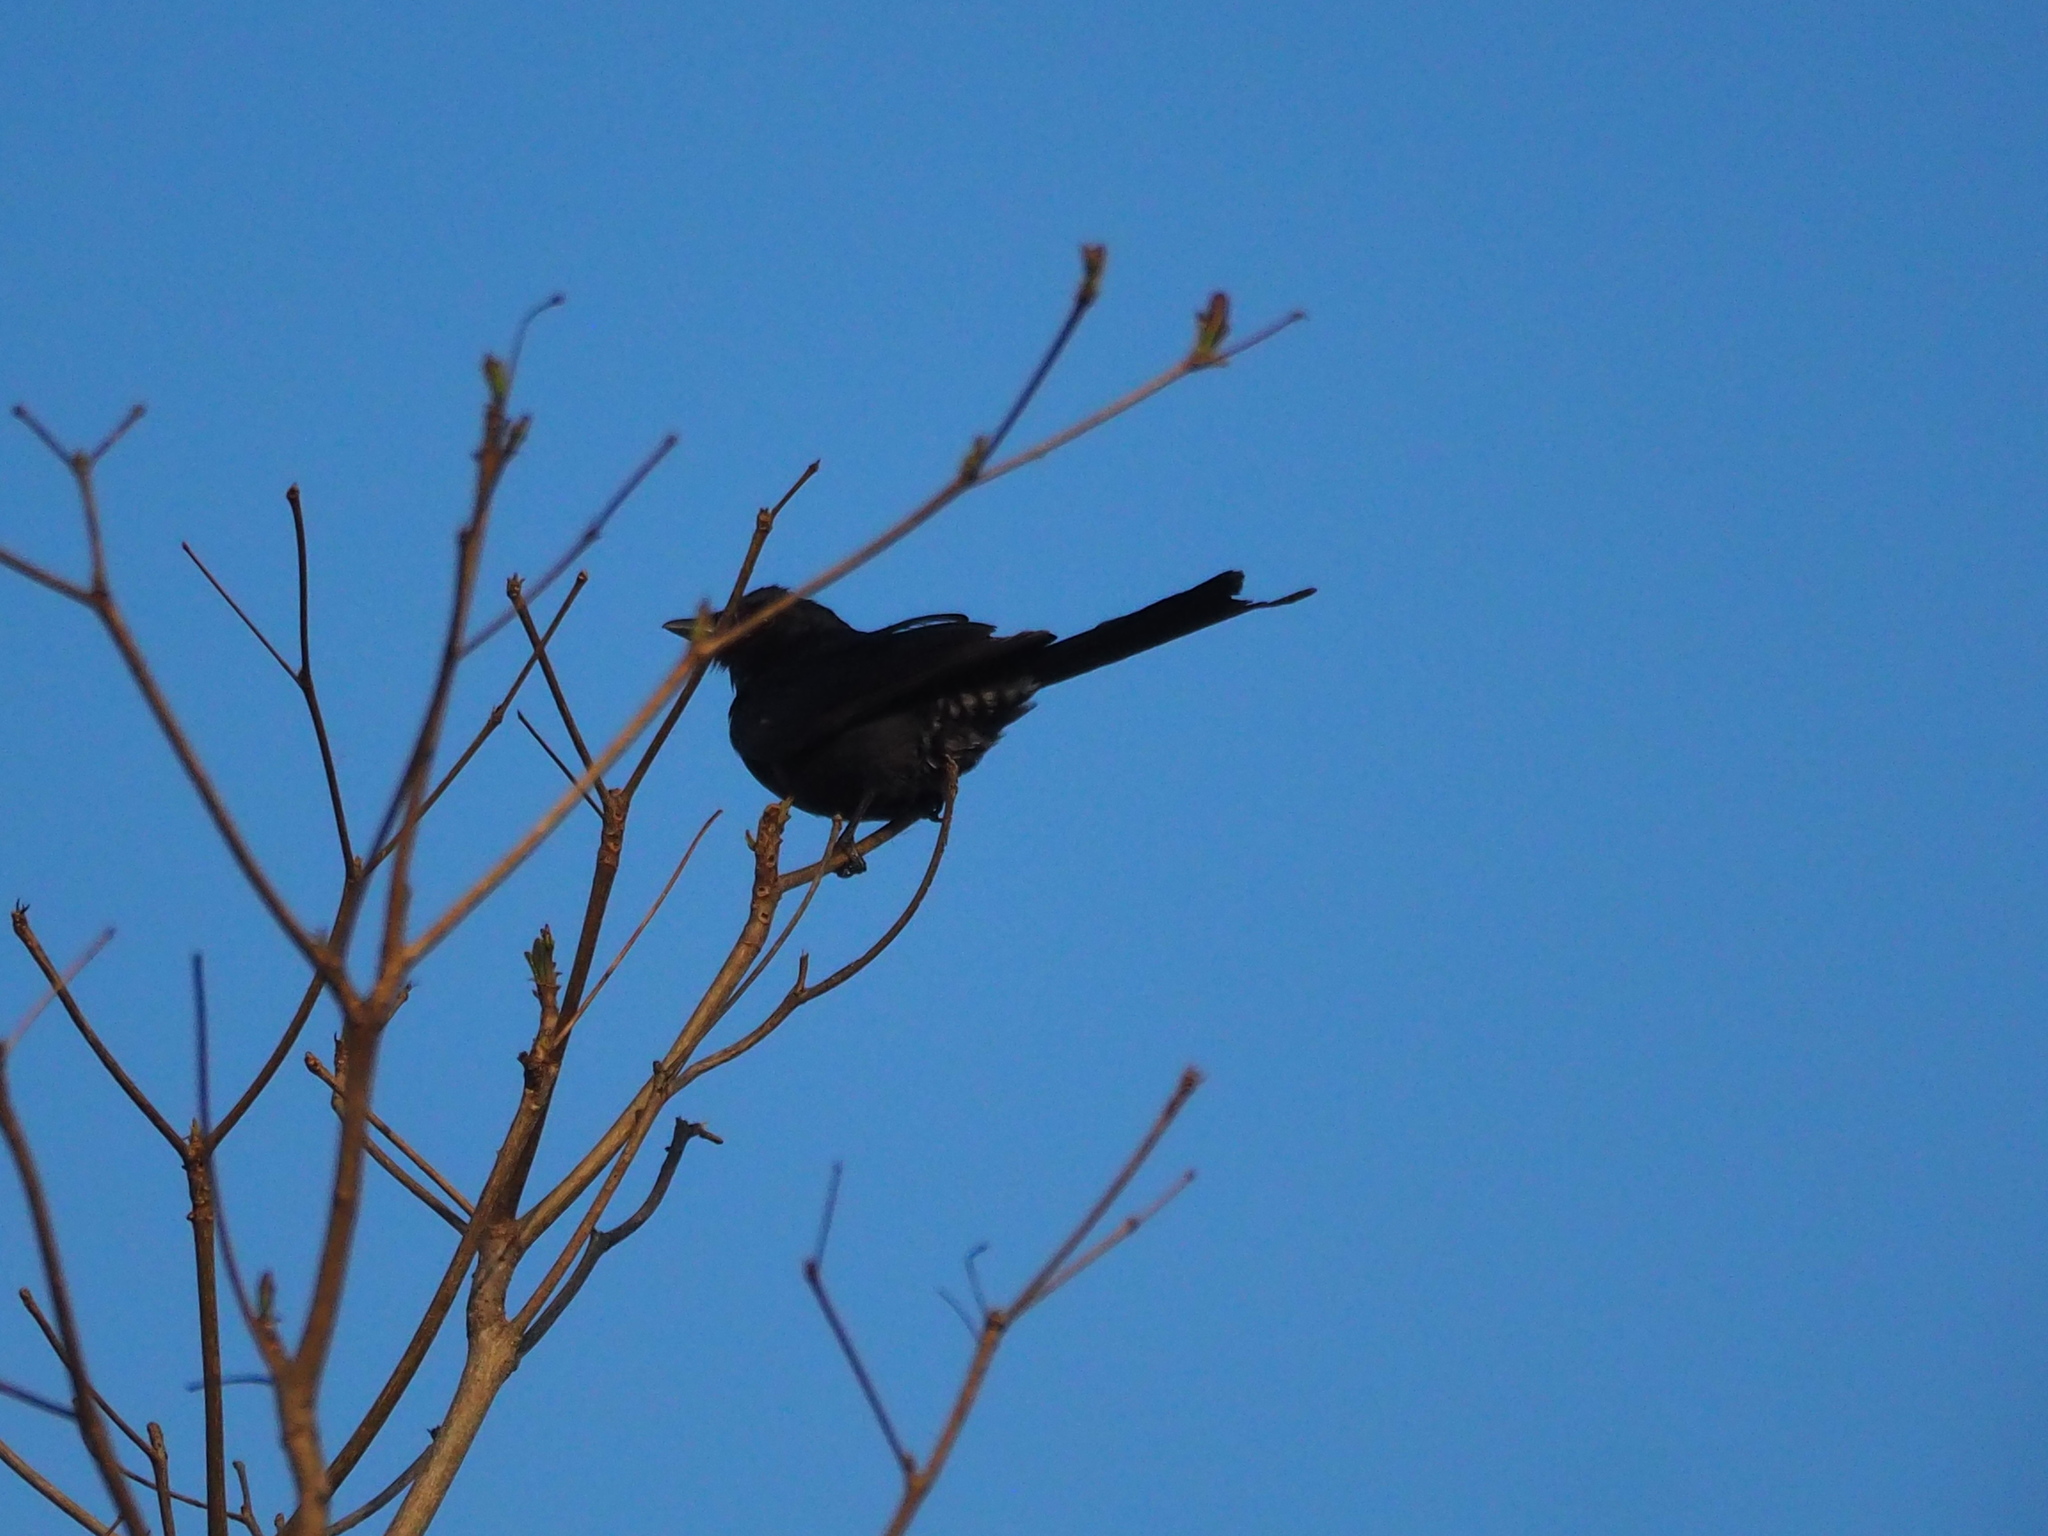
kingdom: Animalia
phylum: Chordata
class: Aves
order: Passeriformes
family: Dicruridae
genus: Dicrurus
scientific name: Dicrurus macrocercus
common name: Black drongo
